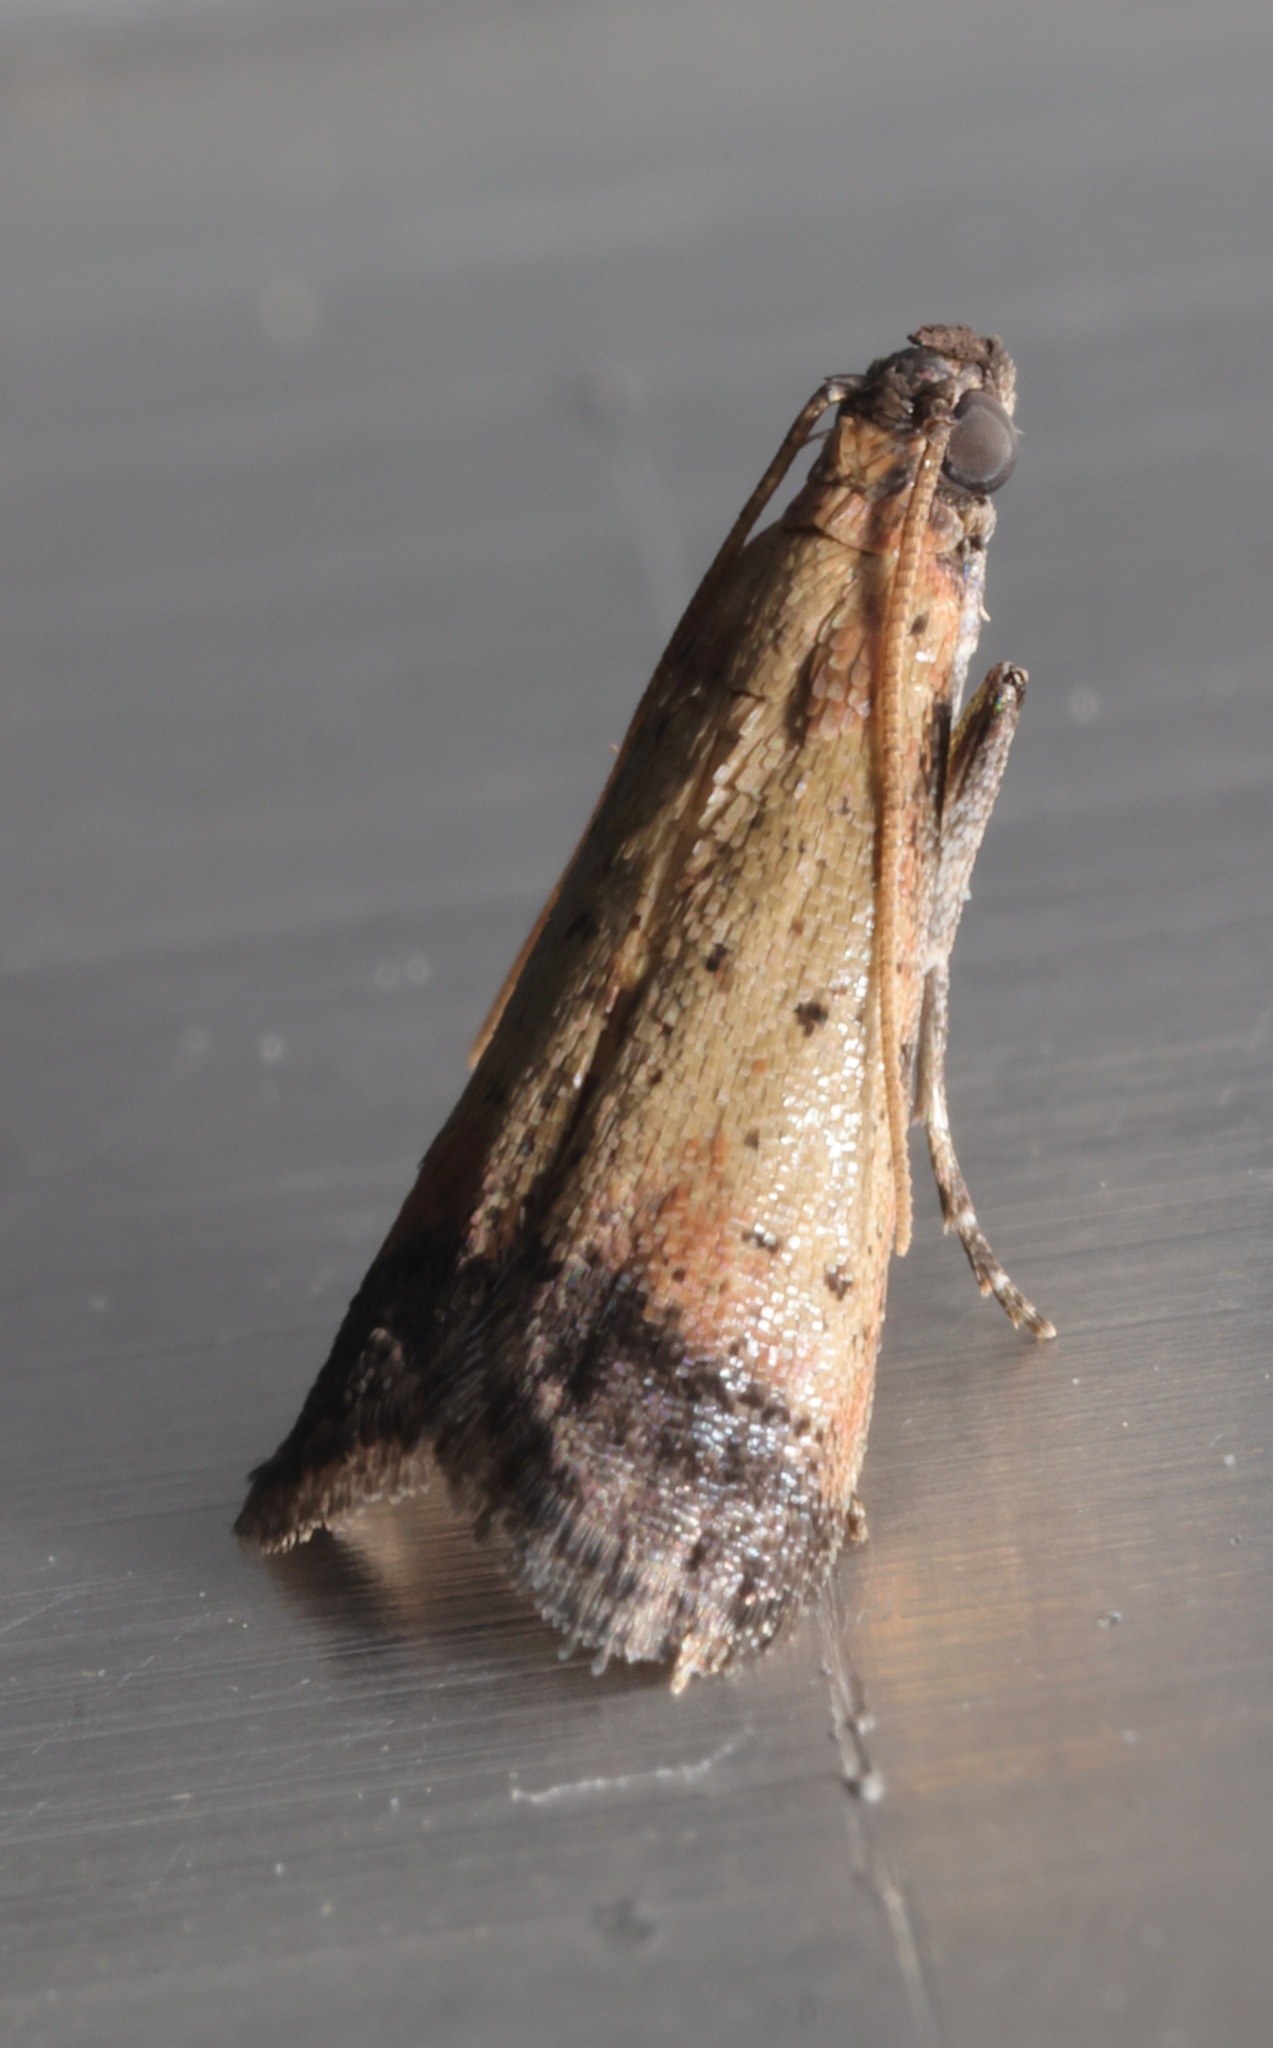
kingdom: Animalia
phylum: Arthropoda
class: Insecta
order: Lepidoptera
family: Pyralidae
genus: Quasipuer
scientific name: Quasipuer colon
